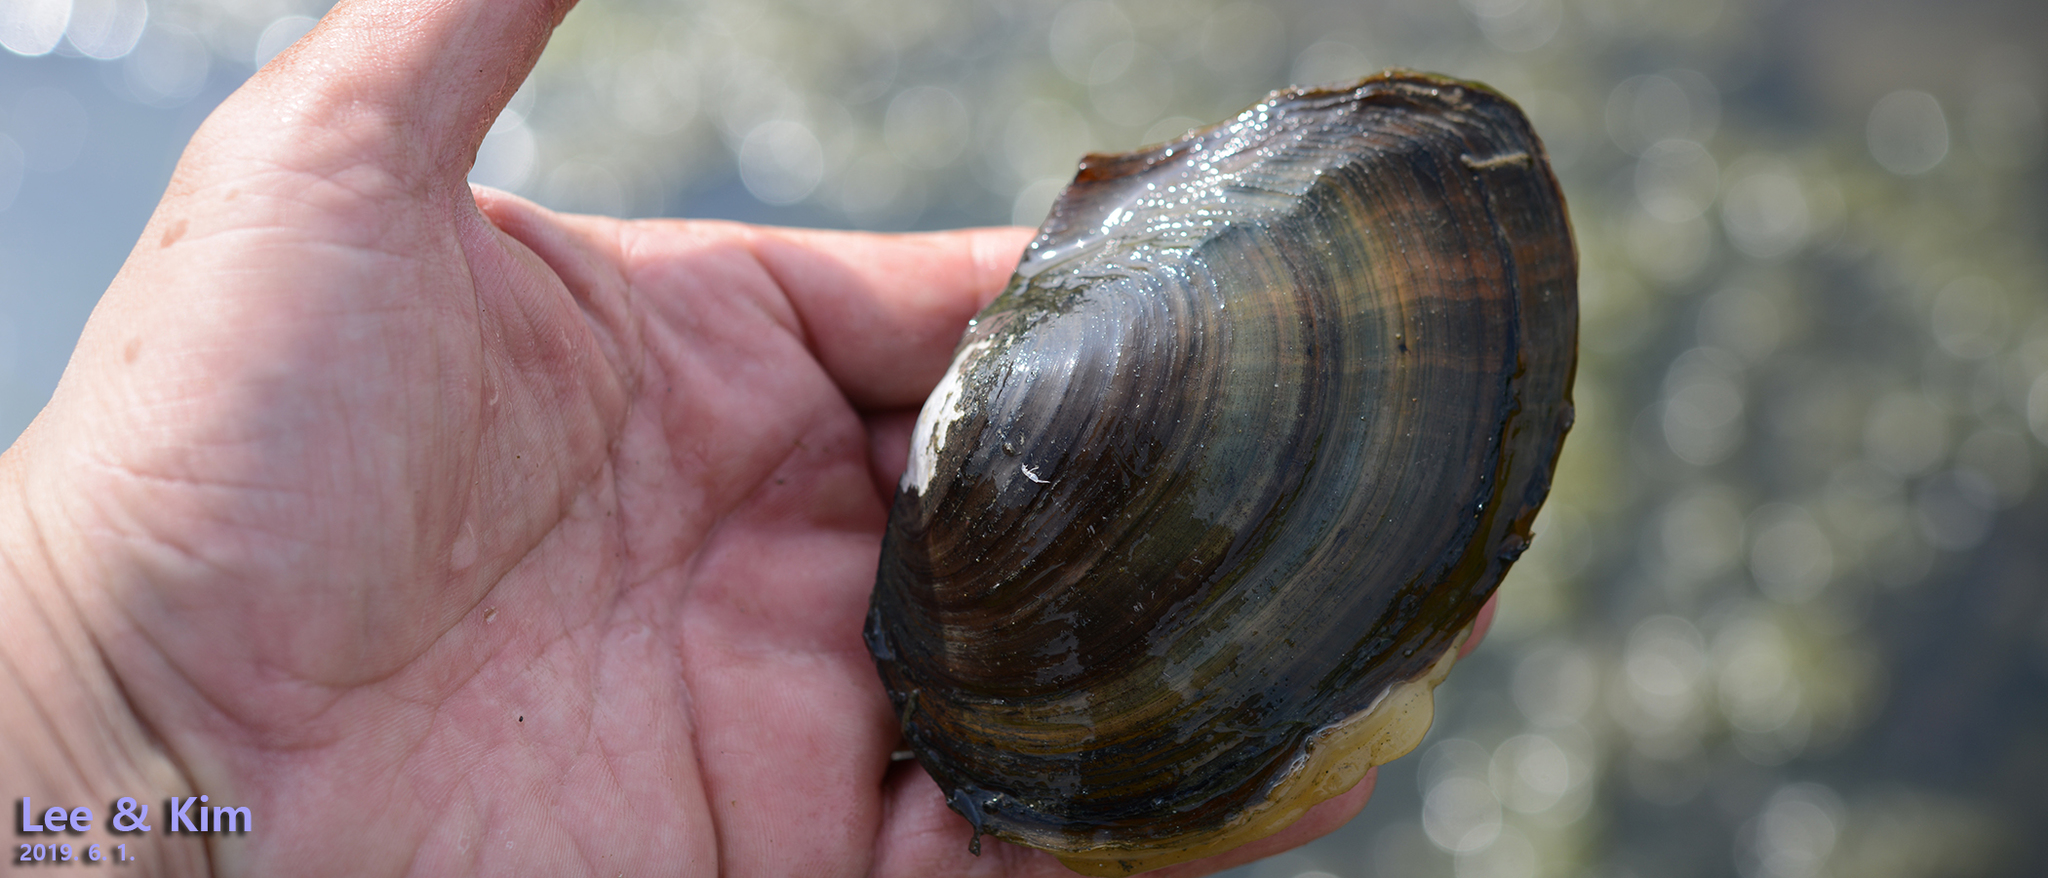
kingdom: Animalia
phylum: Mollusca
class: Bivalvia
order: Unionida
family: Unionidae
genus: Sinanodonta
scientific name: Sinanodonta lauta
